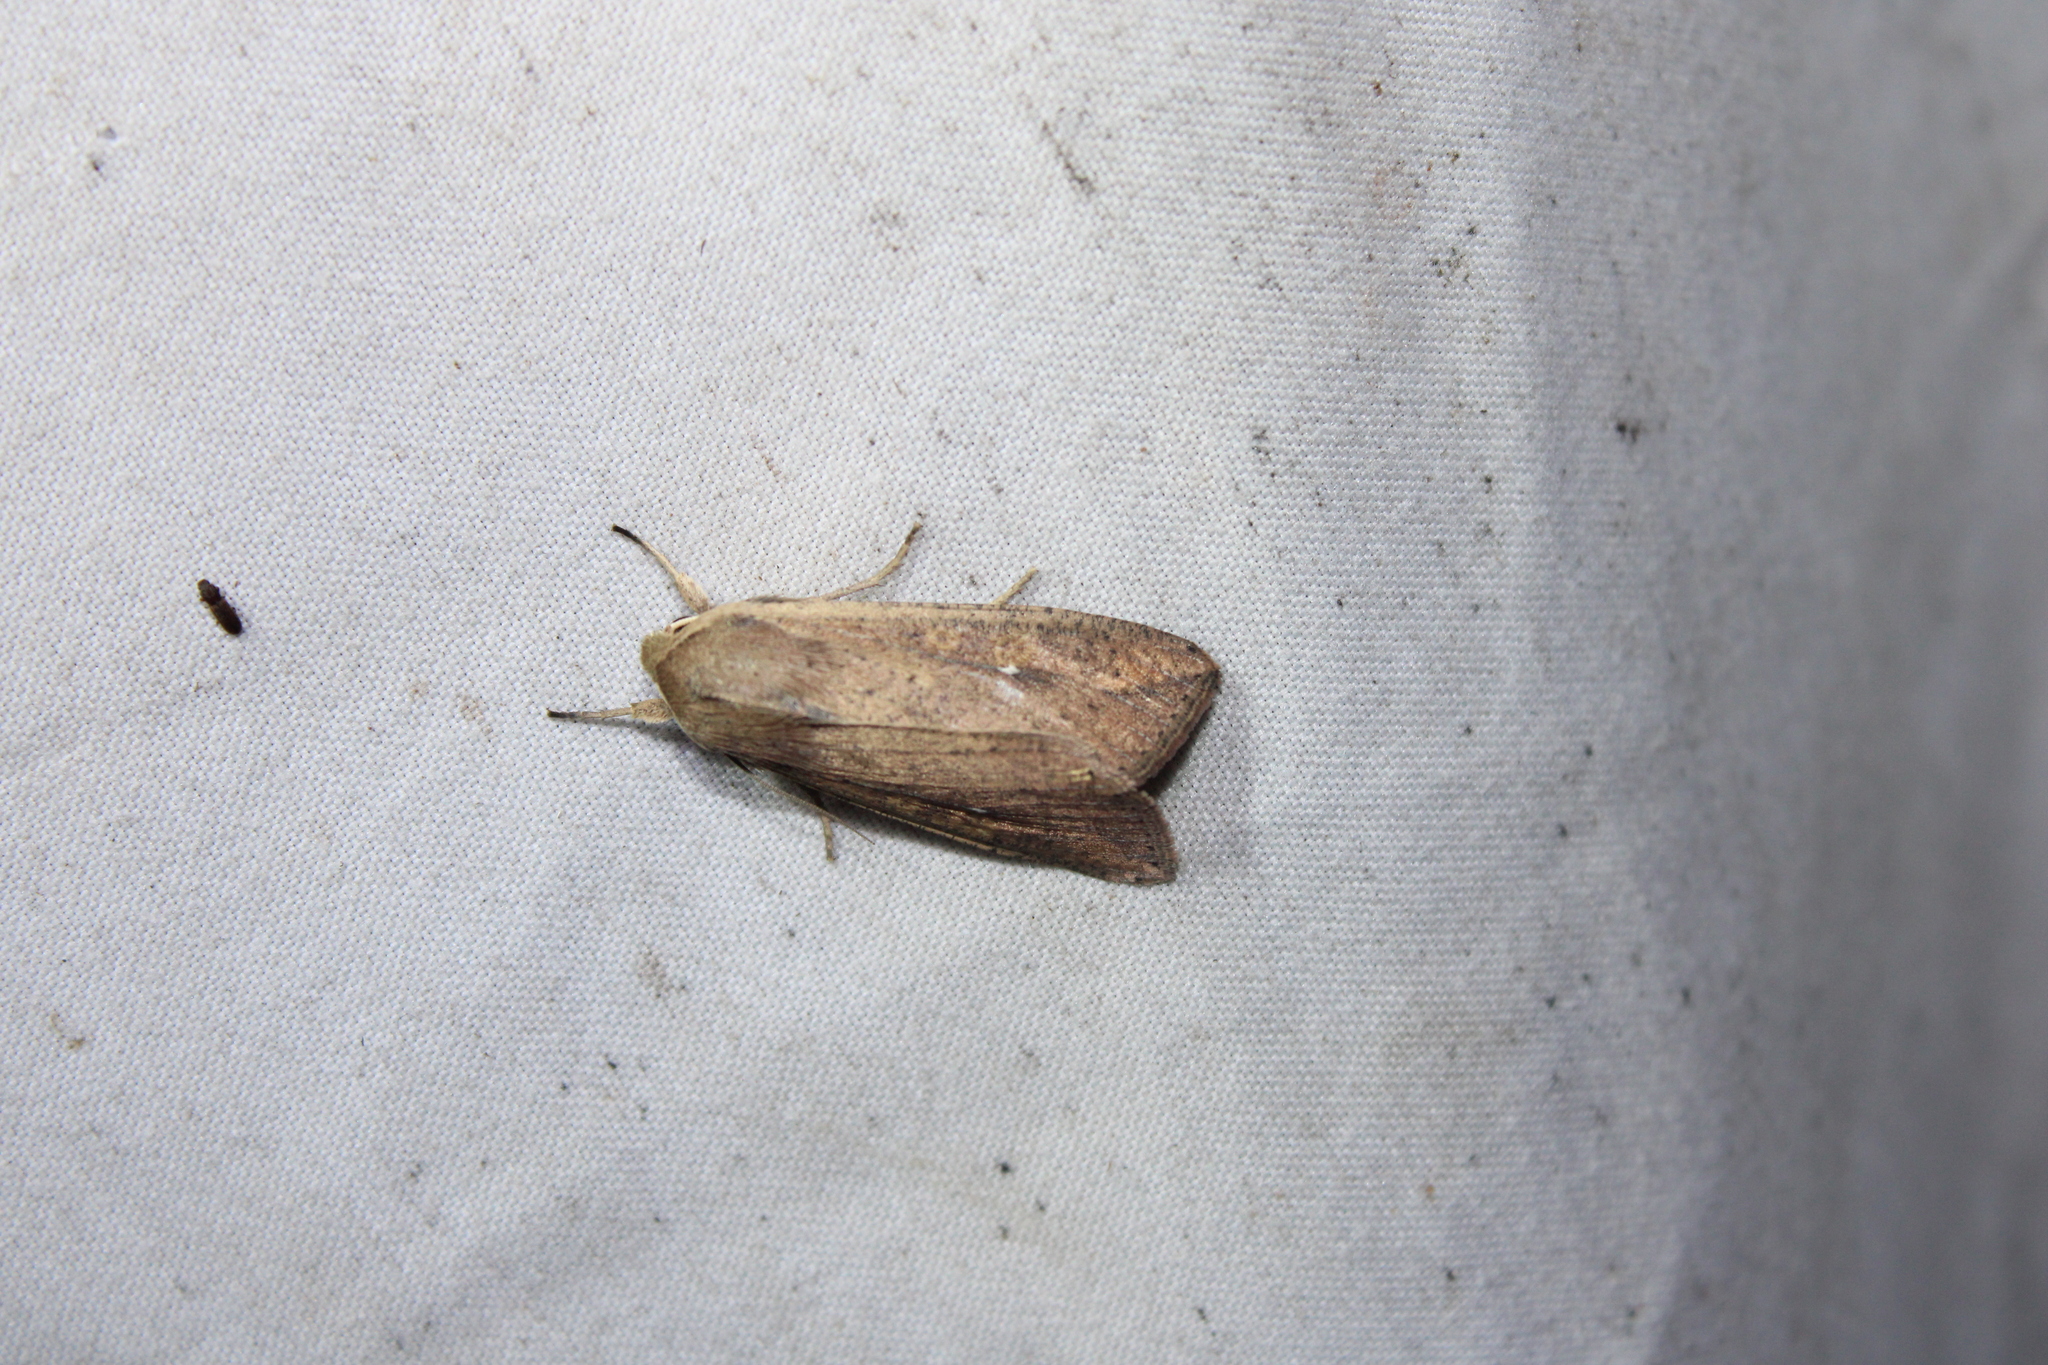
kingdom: Animalia
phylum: Arthropoda
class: Insecta
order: Lepidoptera
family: Noctuidae
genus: Mythimna
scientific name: Mythimna unipuncta
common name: White-speck
